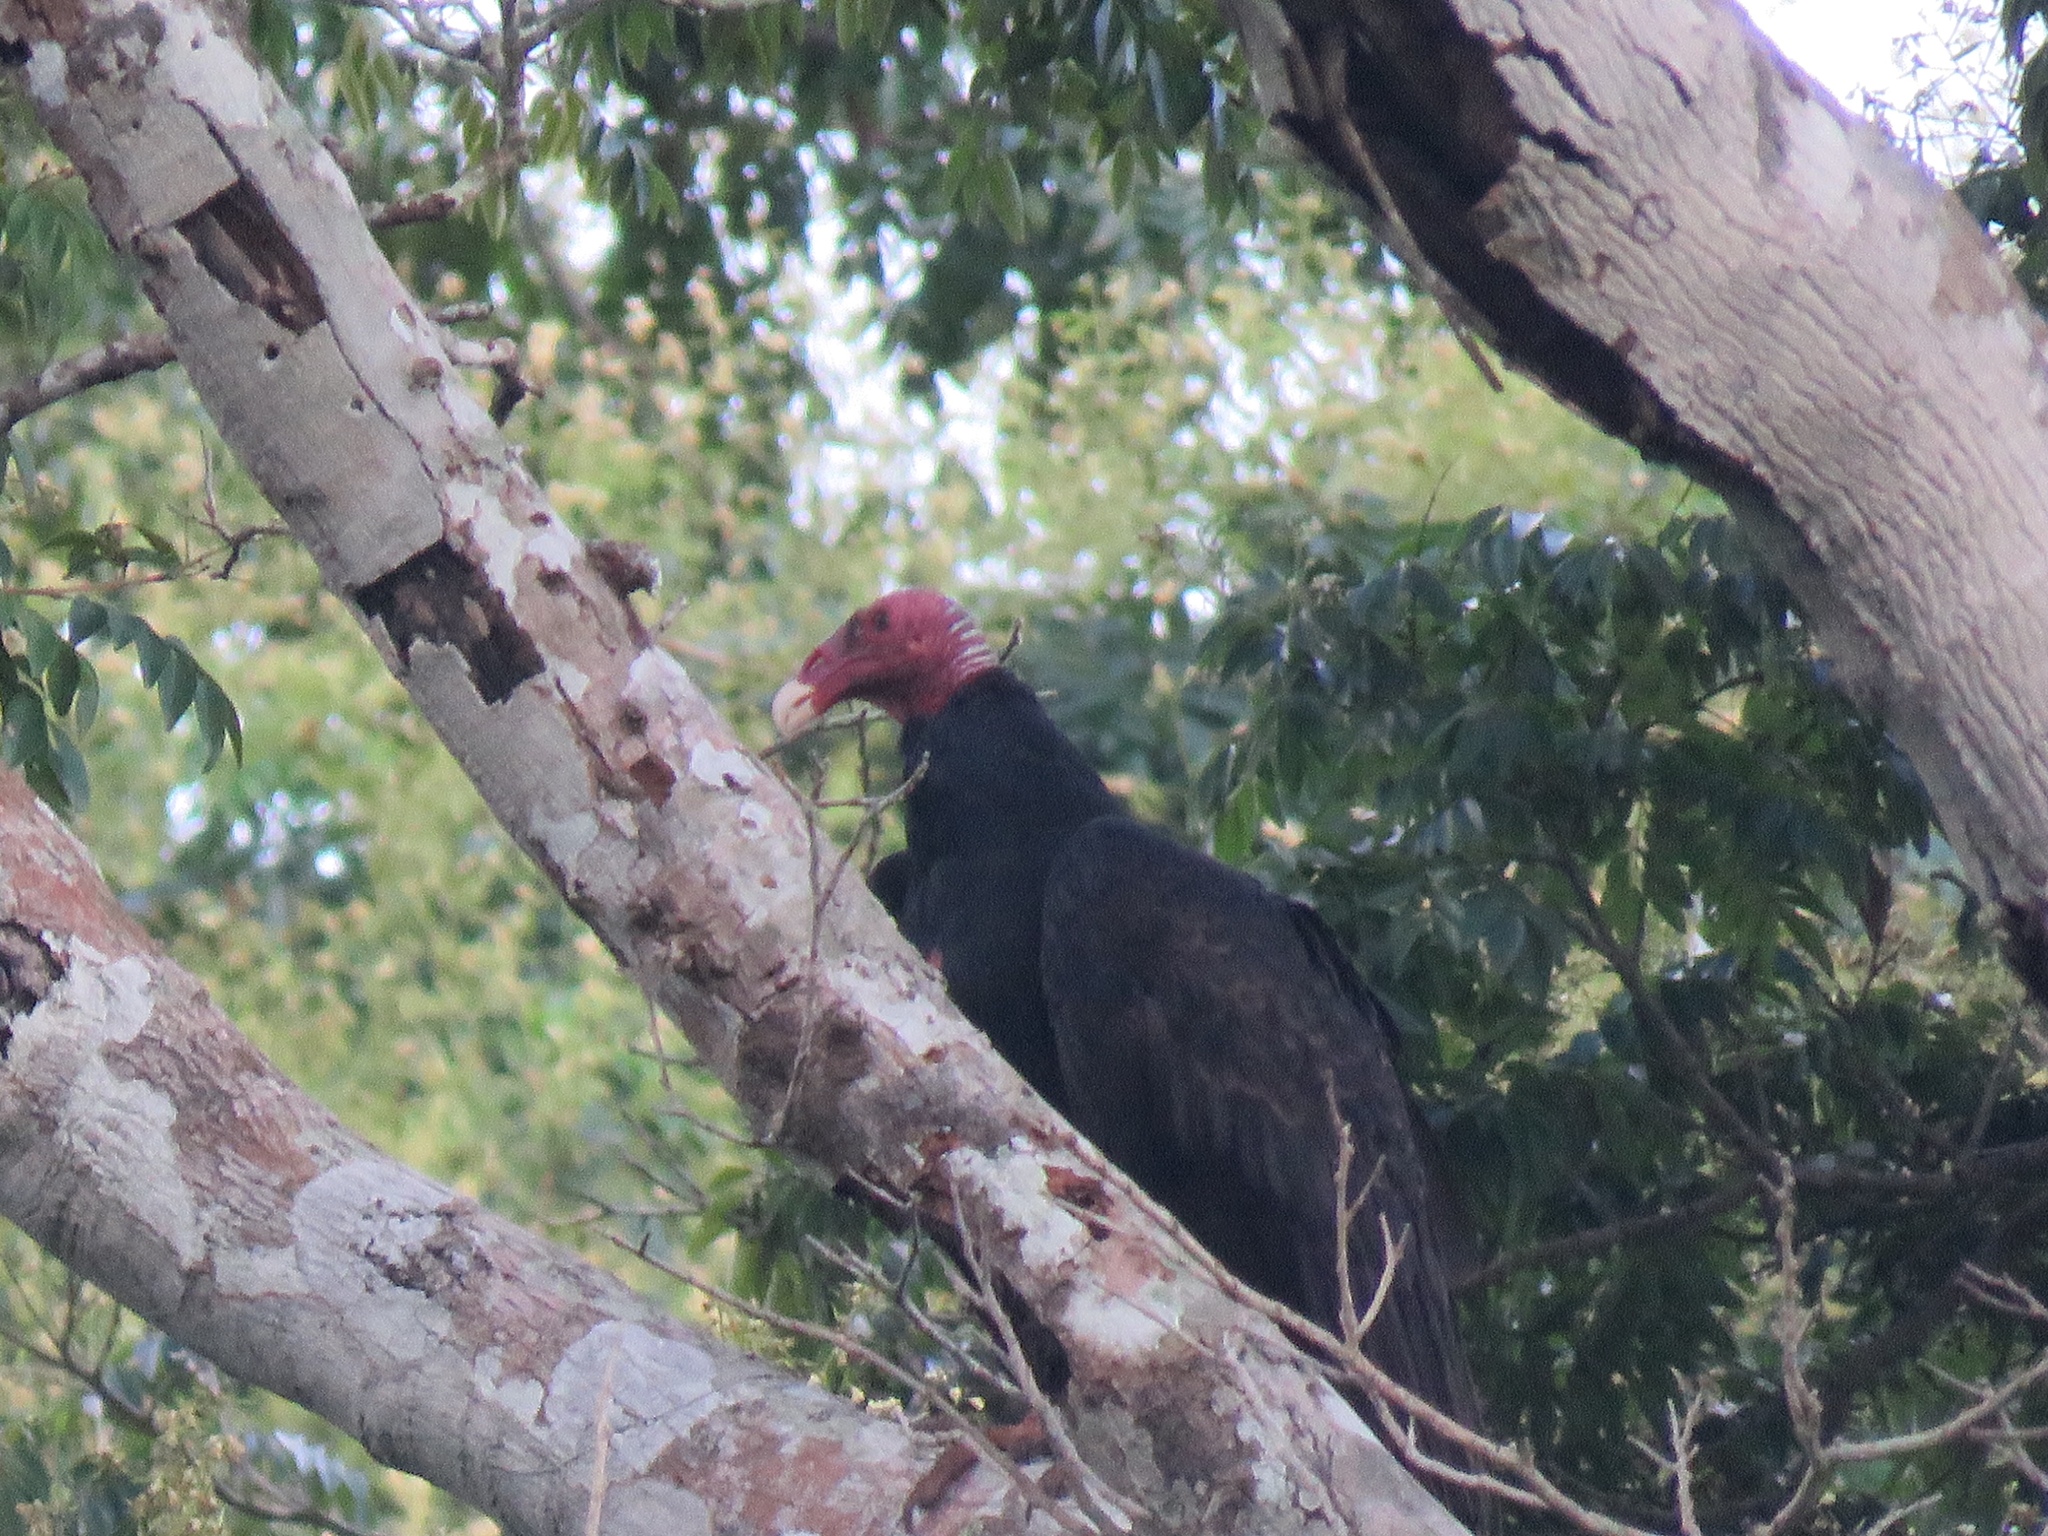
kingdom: Animalia
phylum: Chordata
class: Aves
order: Accipitriformes
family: Cathartidae
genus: Cathartes
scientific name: Cathartes aura
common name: Turkey vulture
